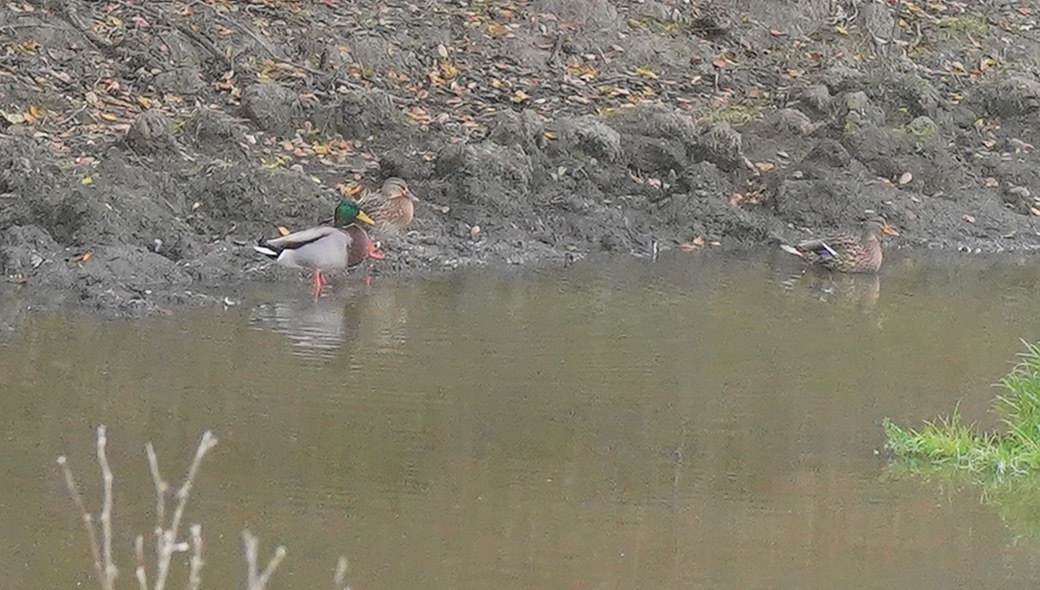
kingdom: Animalia
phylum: Chordata
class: Aves
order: Anseriformes
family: Anatidae
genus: Anas
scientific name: Anas platyrhynchos
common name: Mallard
